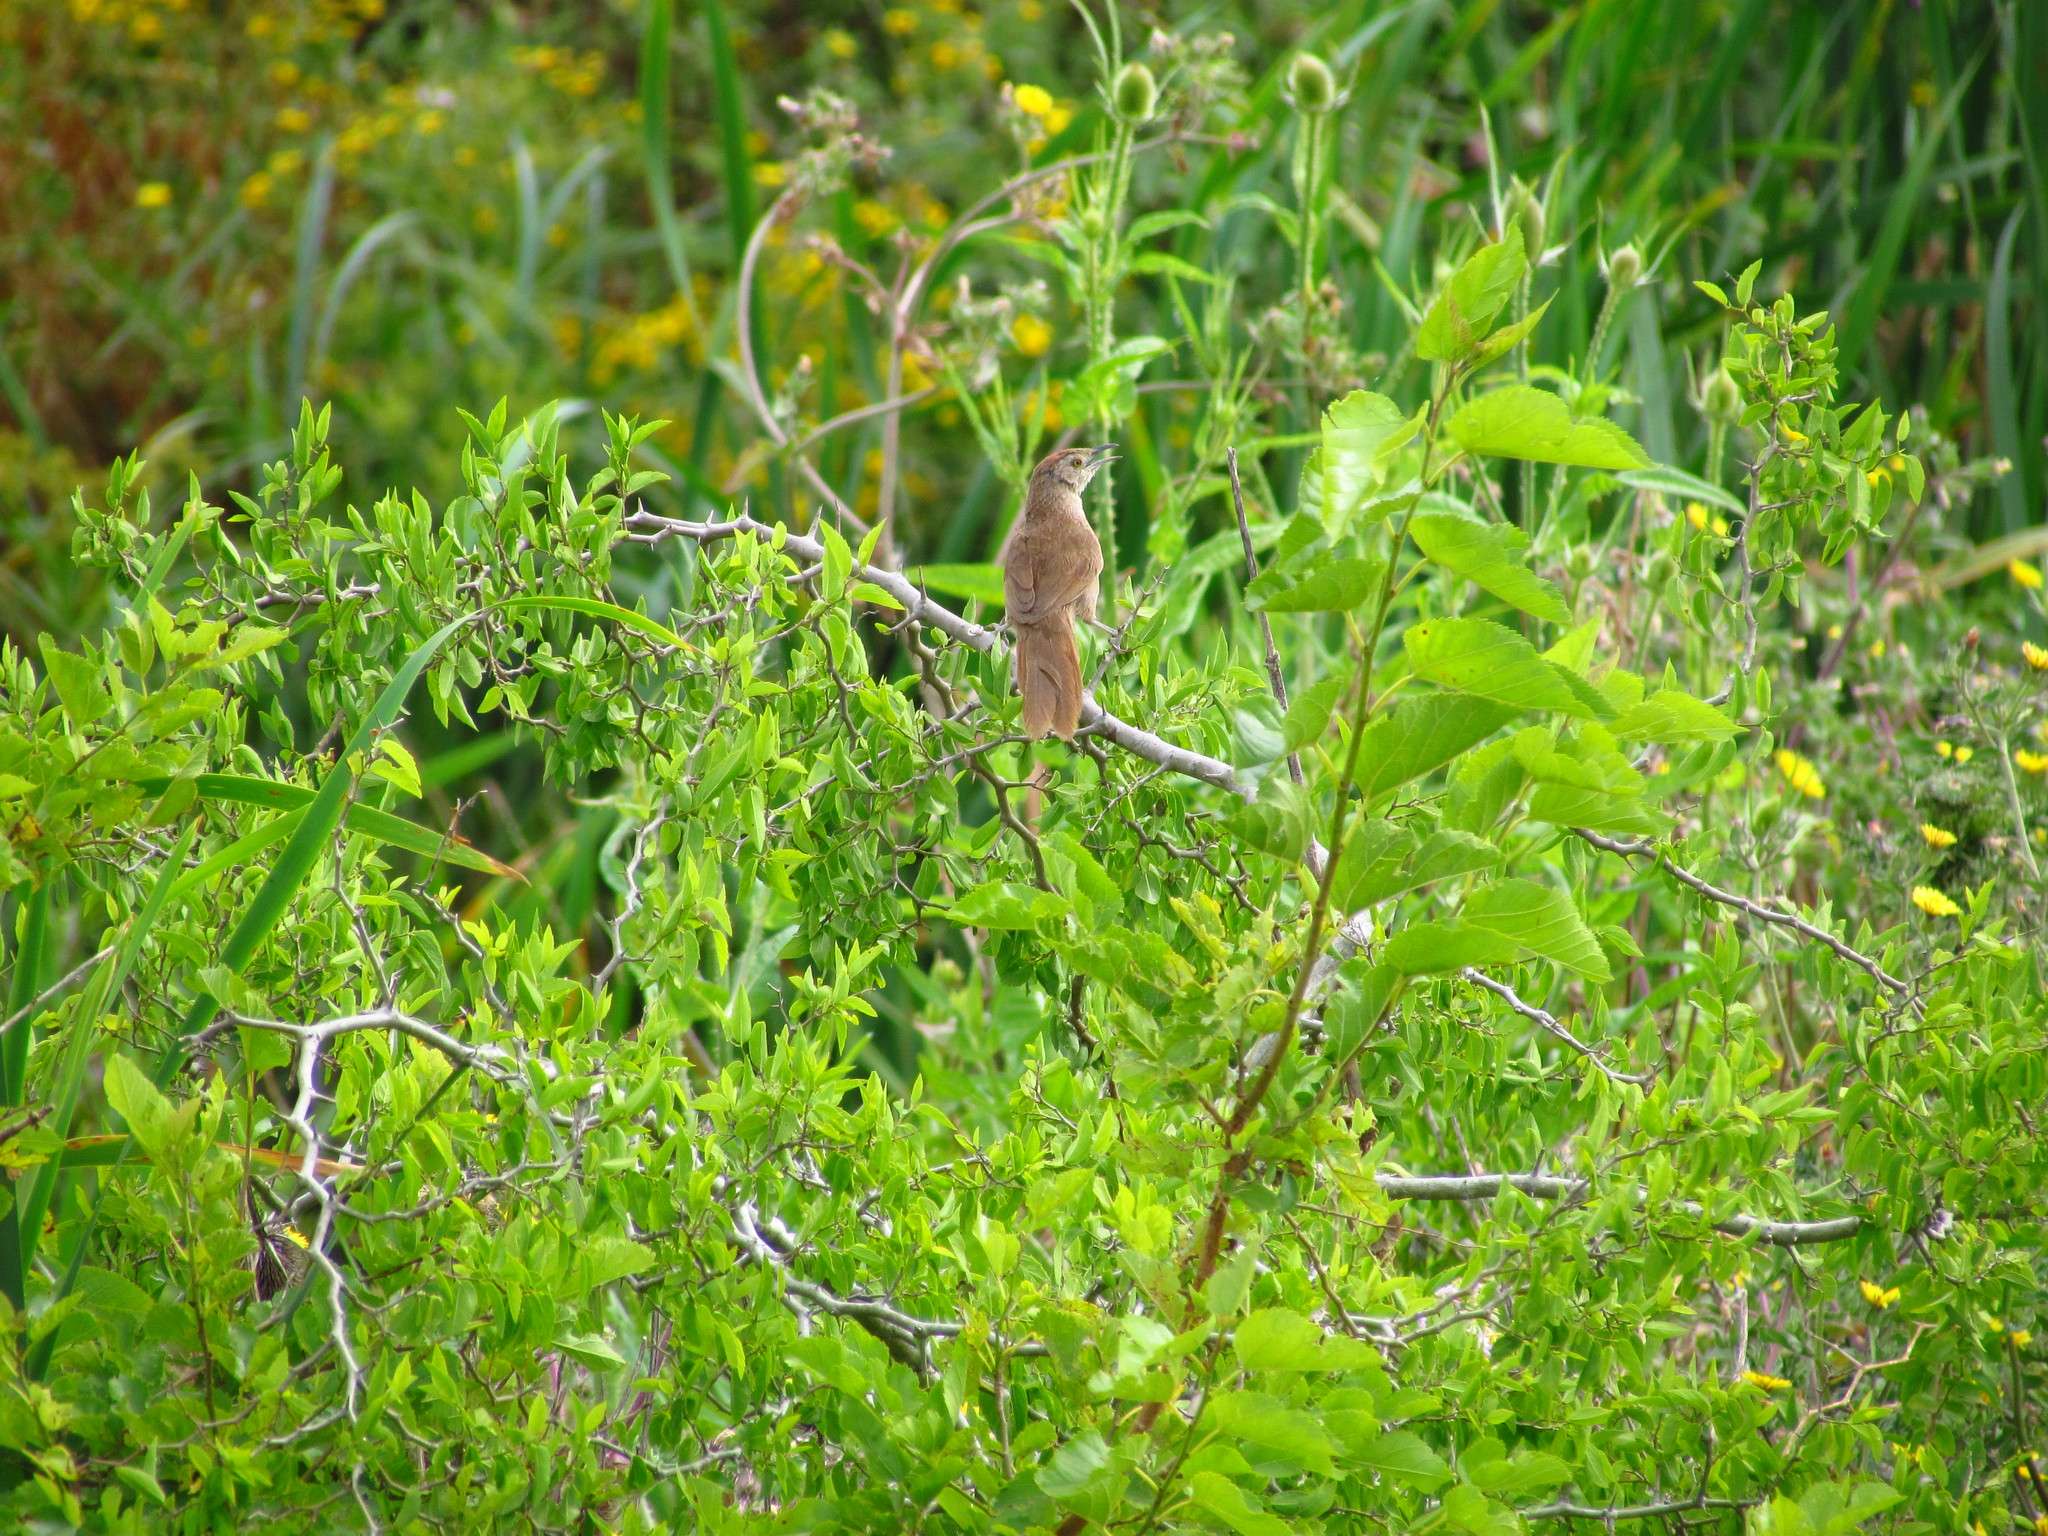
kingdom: Animalia
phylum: Chordata
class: Aves
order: Passeriformes
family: Furnariidae
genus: Phacellodomus
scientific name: Phacellodomus striaticollis
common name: Freckle-breasted thornbird
